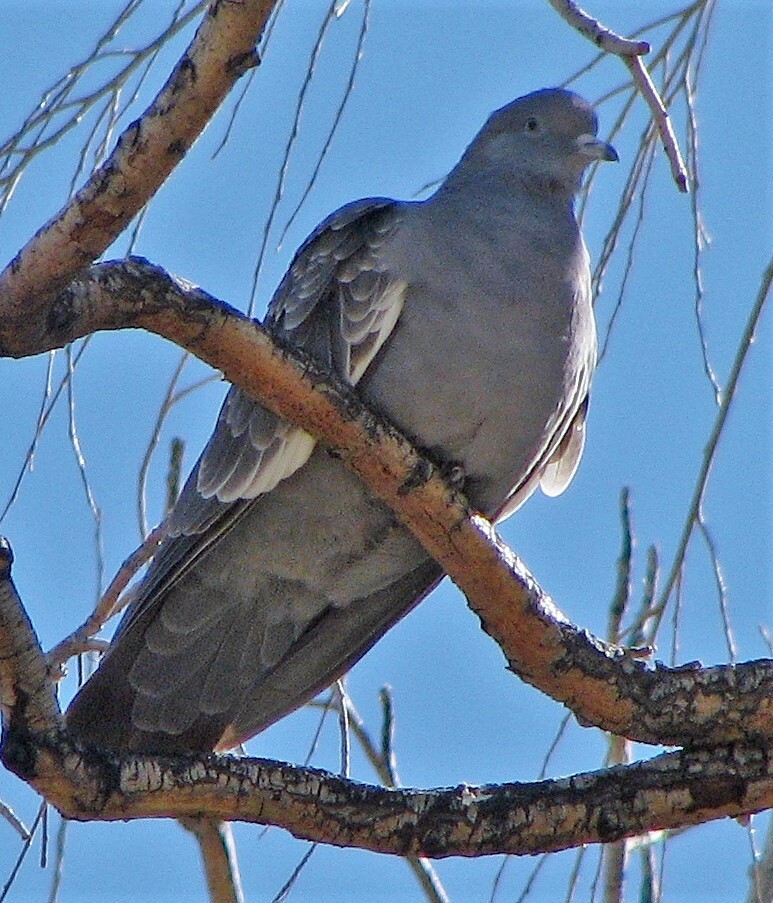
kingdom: Animalia
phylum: Chordata
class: Aves
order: Columbiformes
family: Columbidae
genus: Patagioenas
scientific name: Patagioenas maculosa
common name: Spot-winged pigeon
